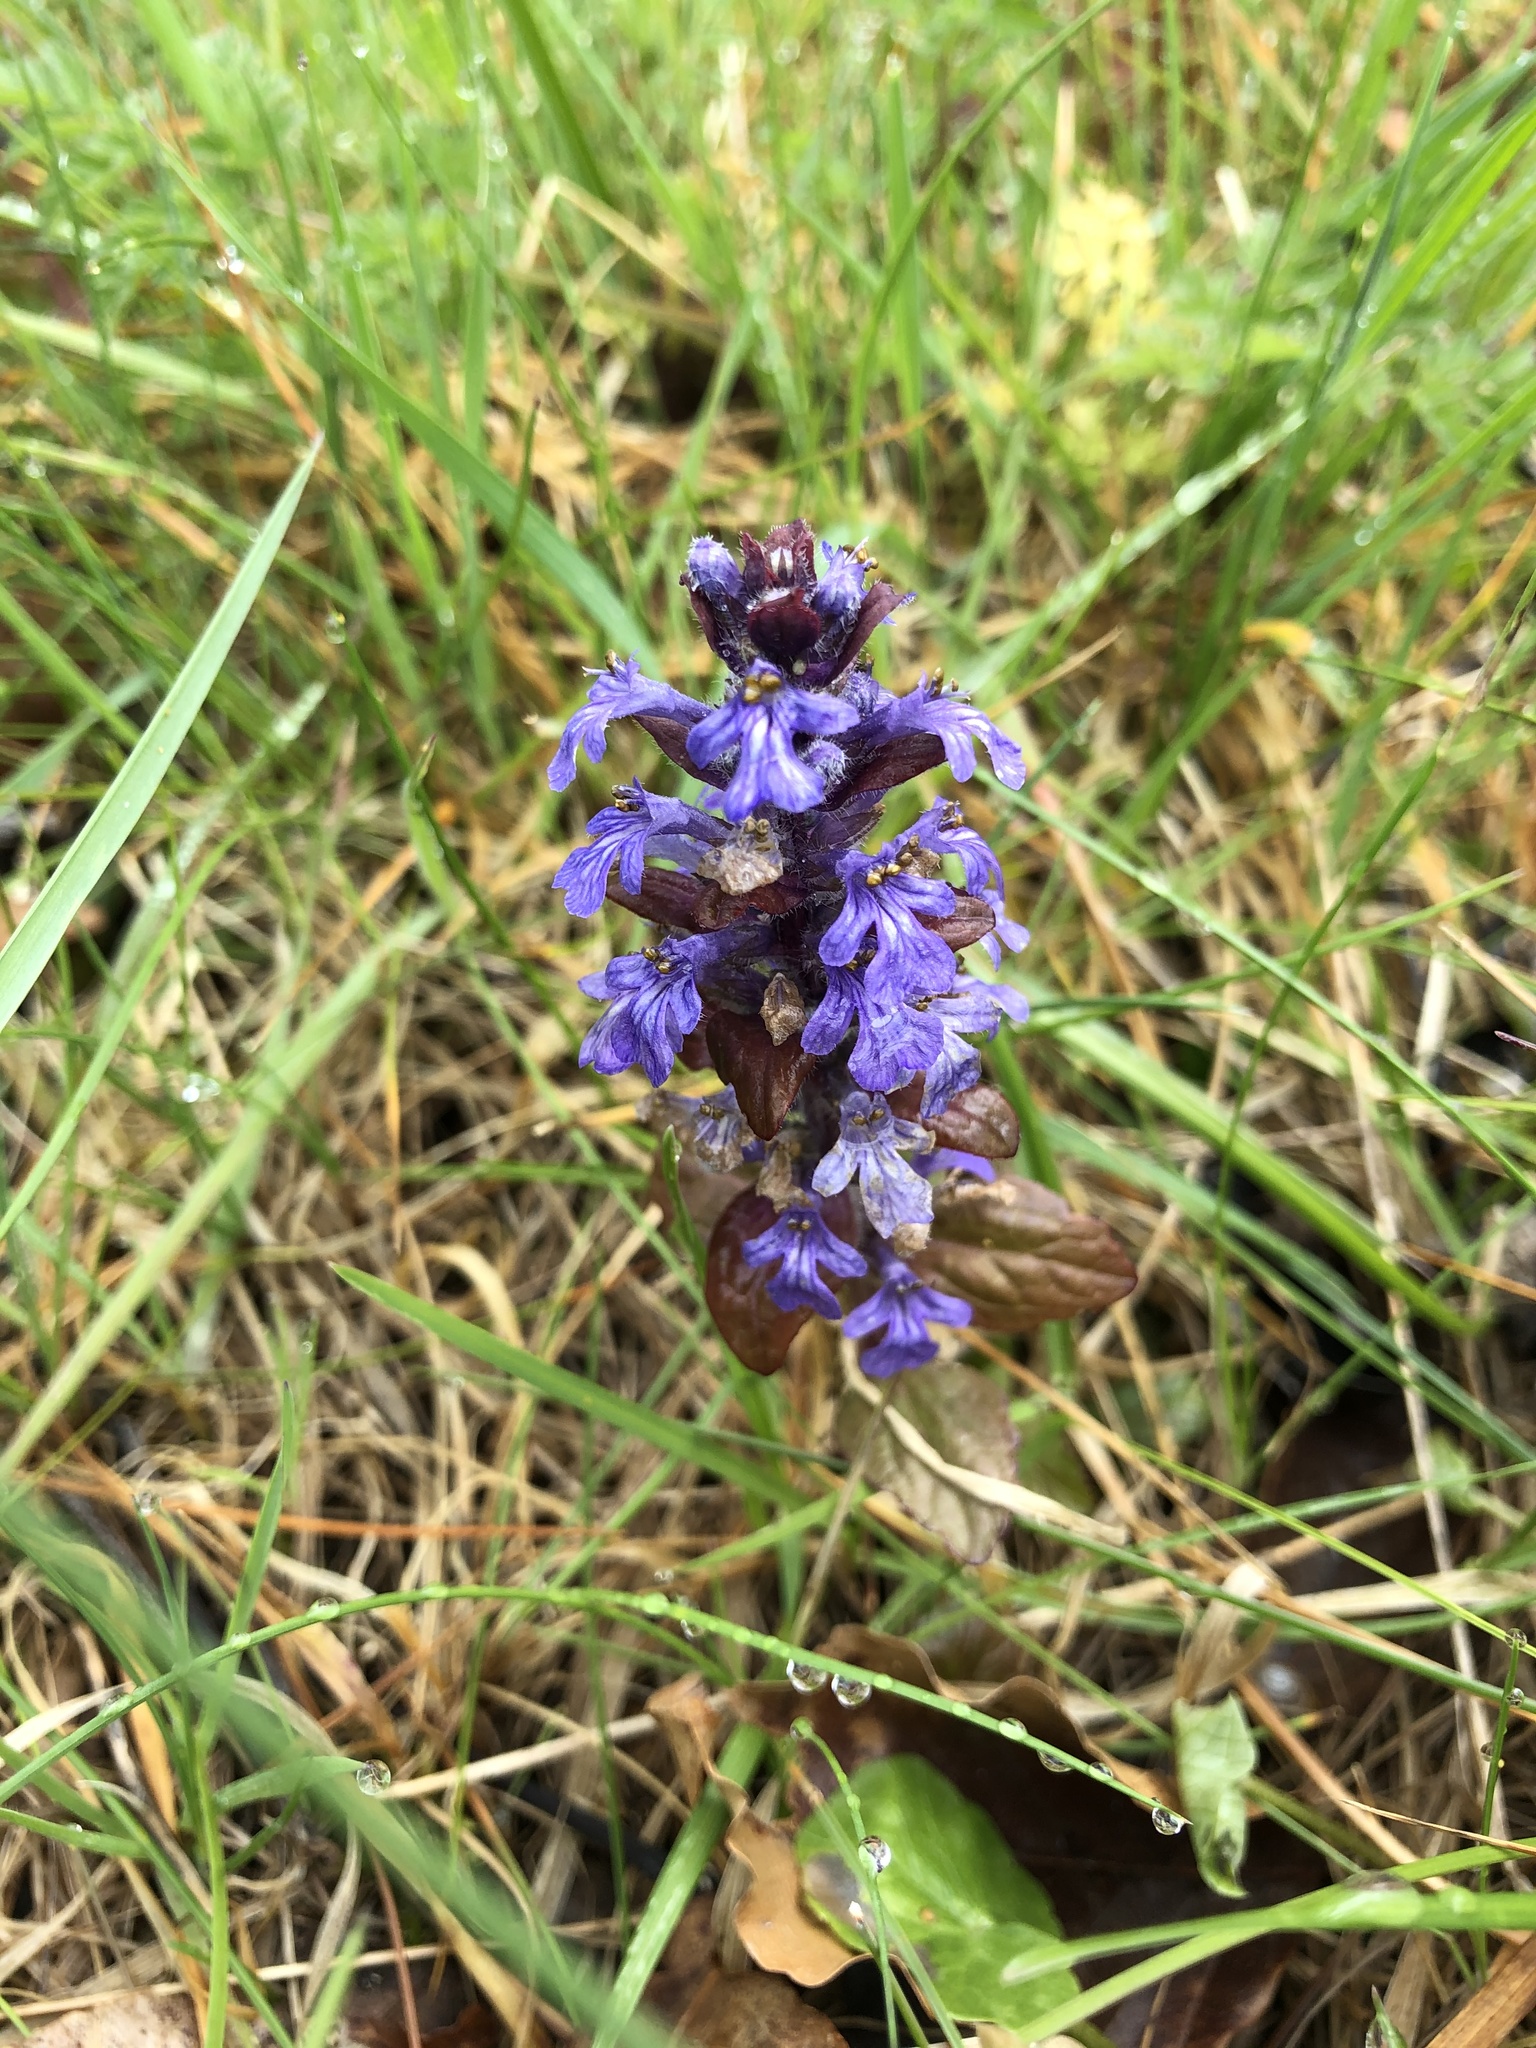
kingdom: Plantae
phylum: Tracheophyta
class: Magnoliopsida
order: Lamiales
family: Lamiaceae
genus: Ajuga
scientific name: Ajuga reptans
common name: Bugle
